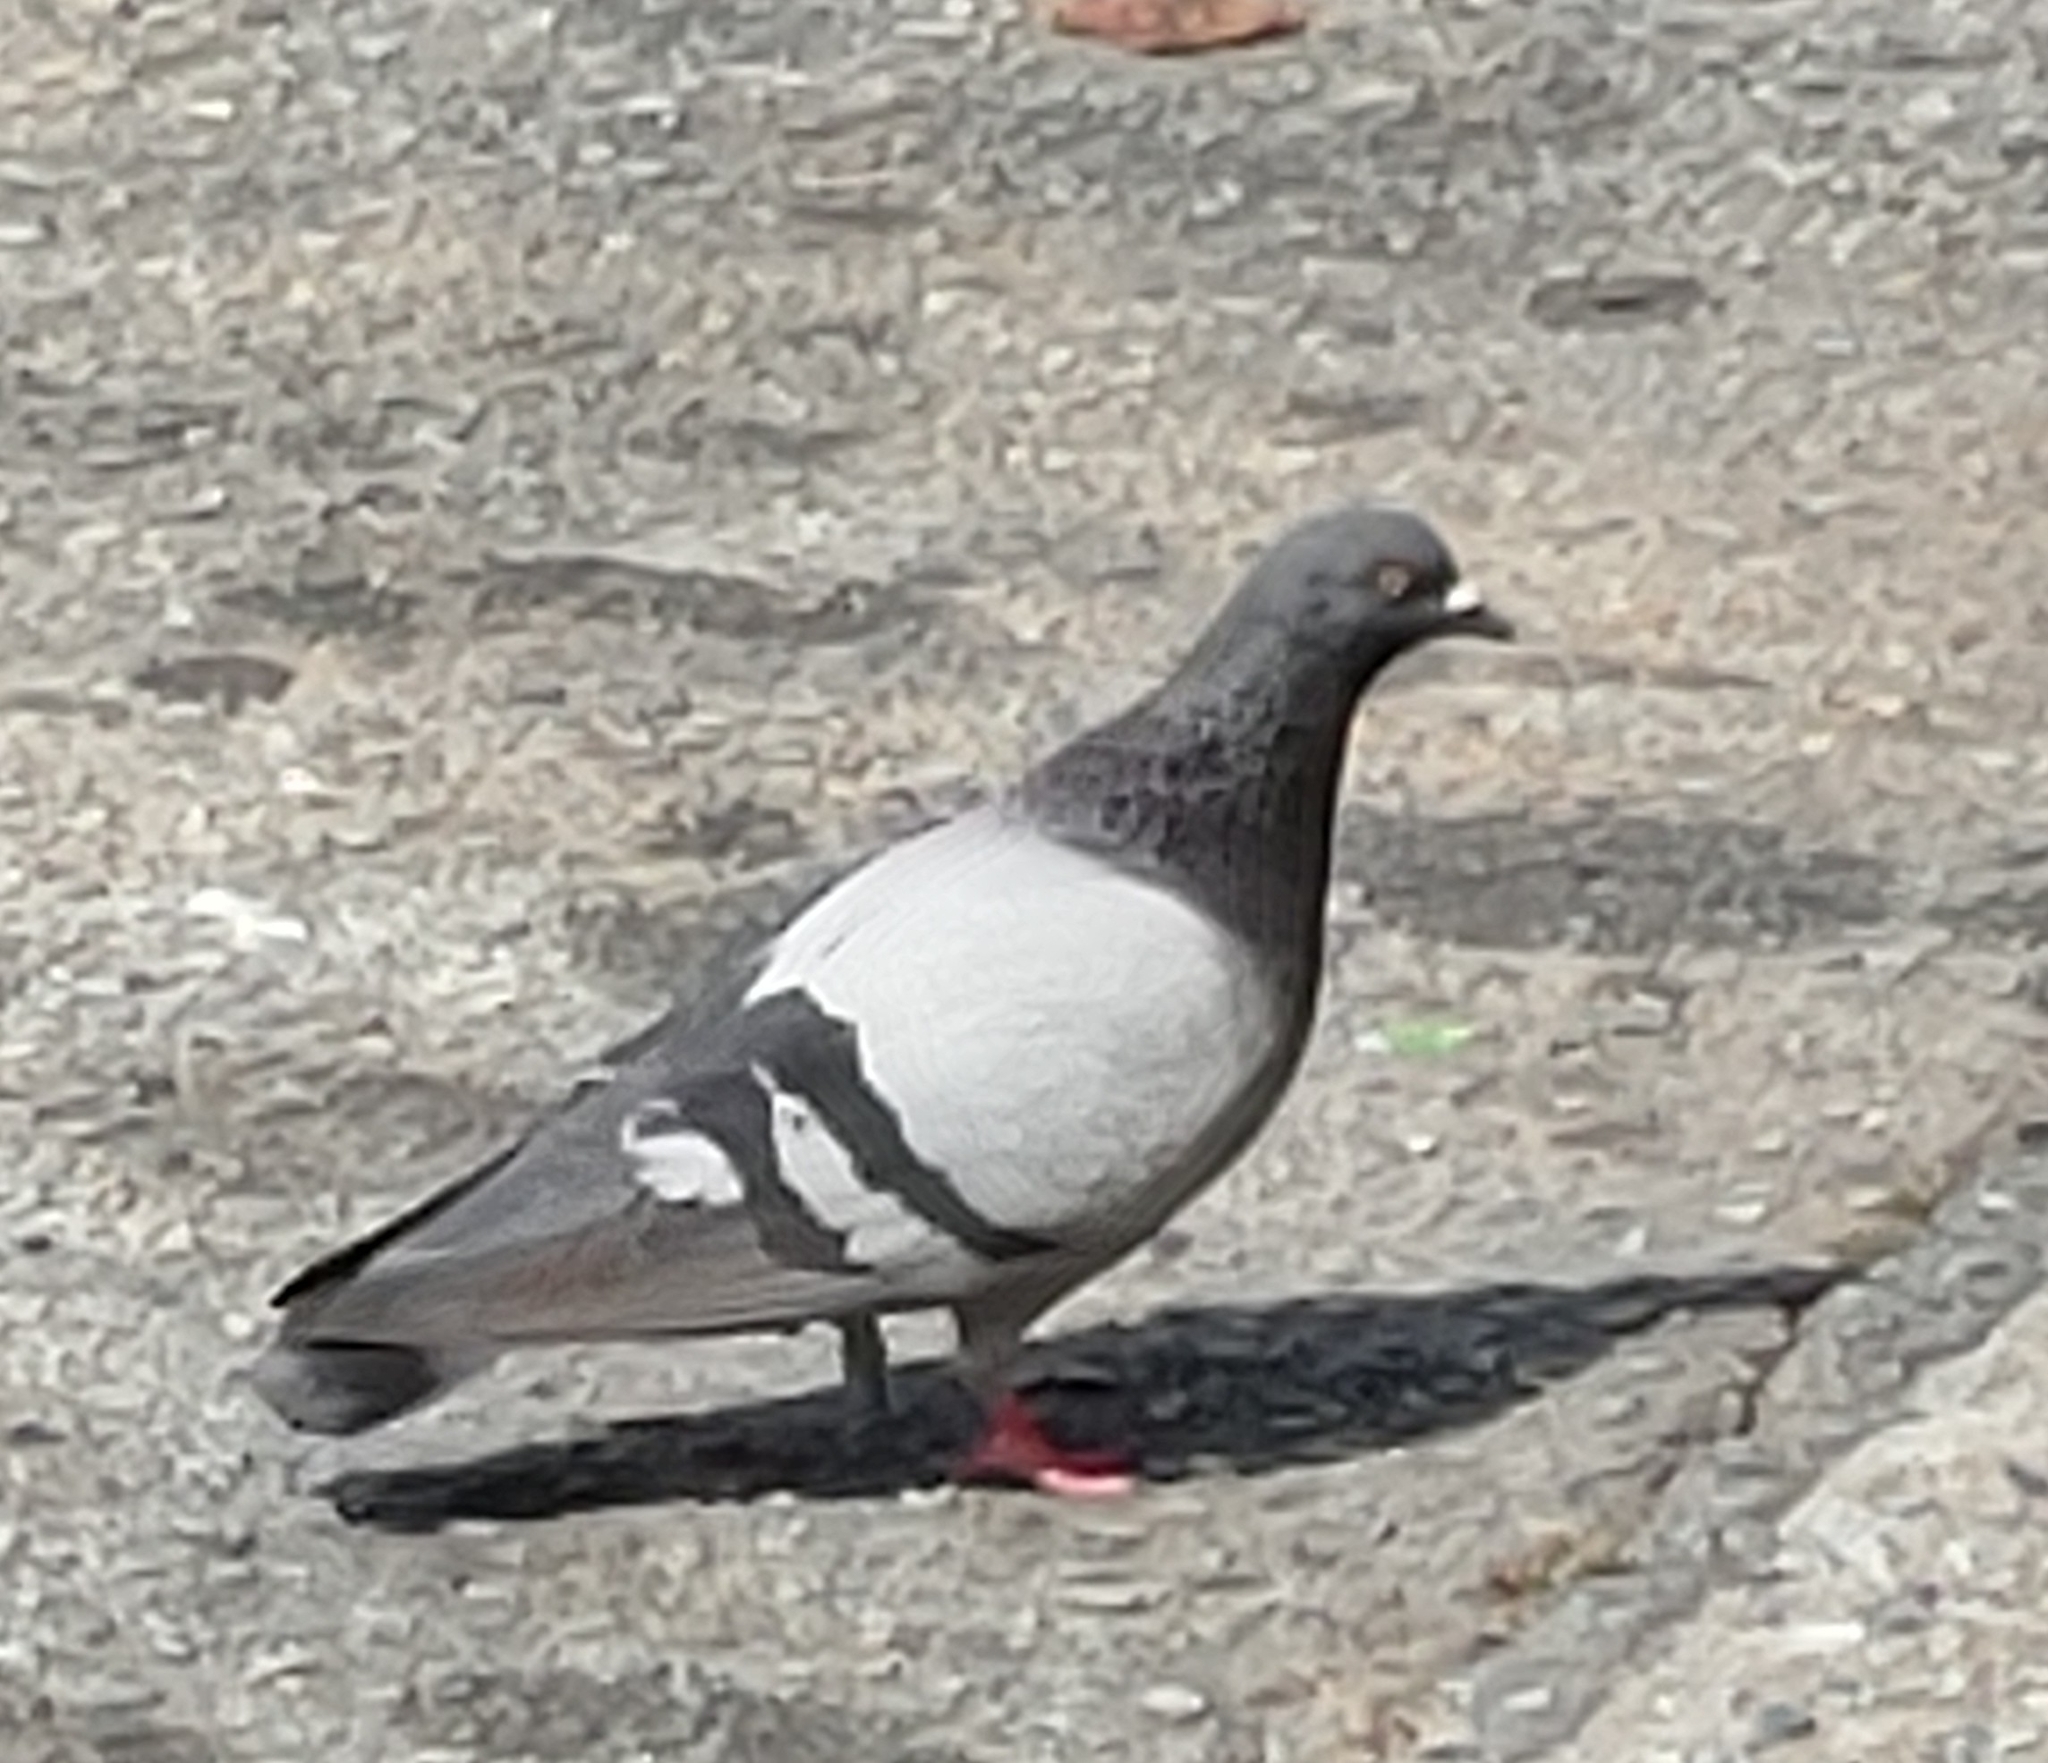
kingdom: Animalia
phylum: Chordata
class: Aves
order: Columbiformes
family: Columbidae
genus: Columba
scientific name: Columba livia
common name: Rock pigeon
